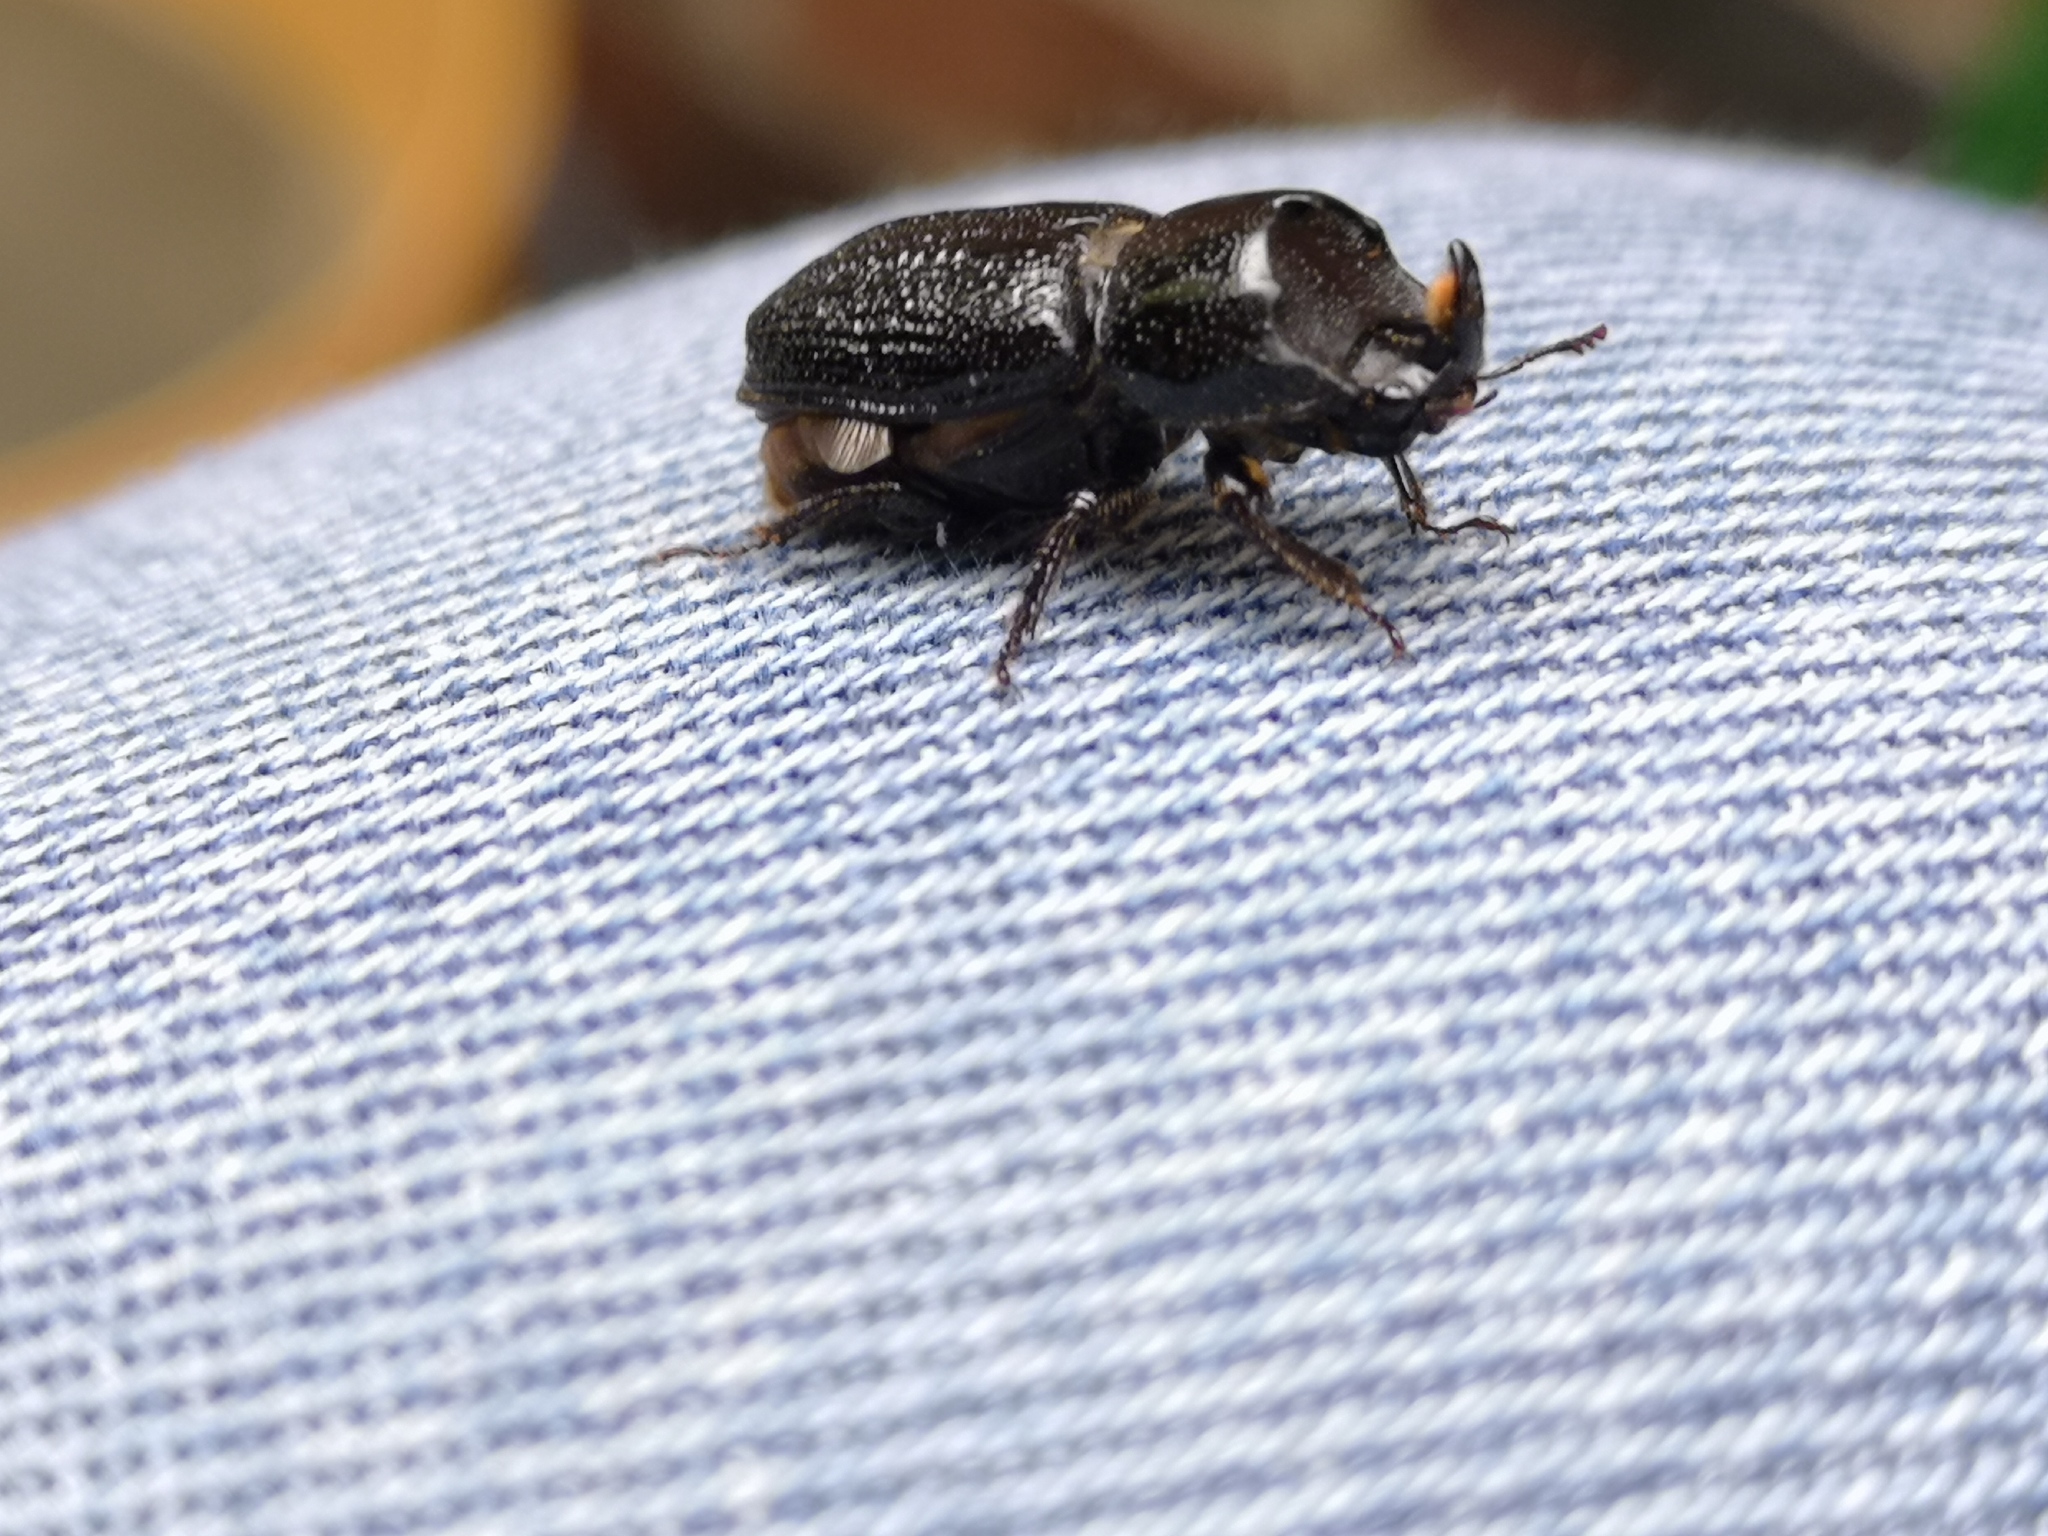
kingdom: Animalia
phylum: Arthropoda
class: Insecta
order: Coleoptera
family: Lucanidae
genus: Sinodendron
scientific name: Sinodendron cylindricum
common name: Rhinoceros beetle
